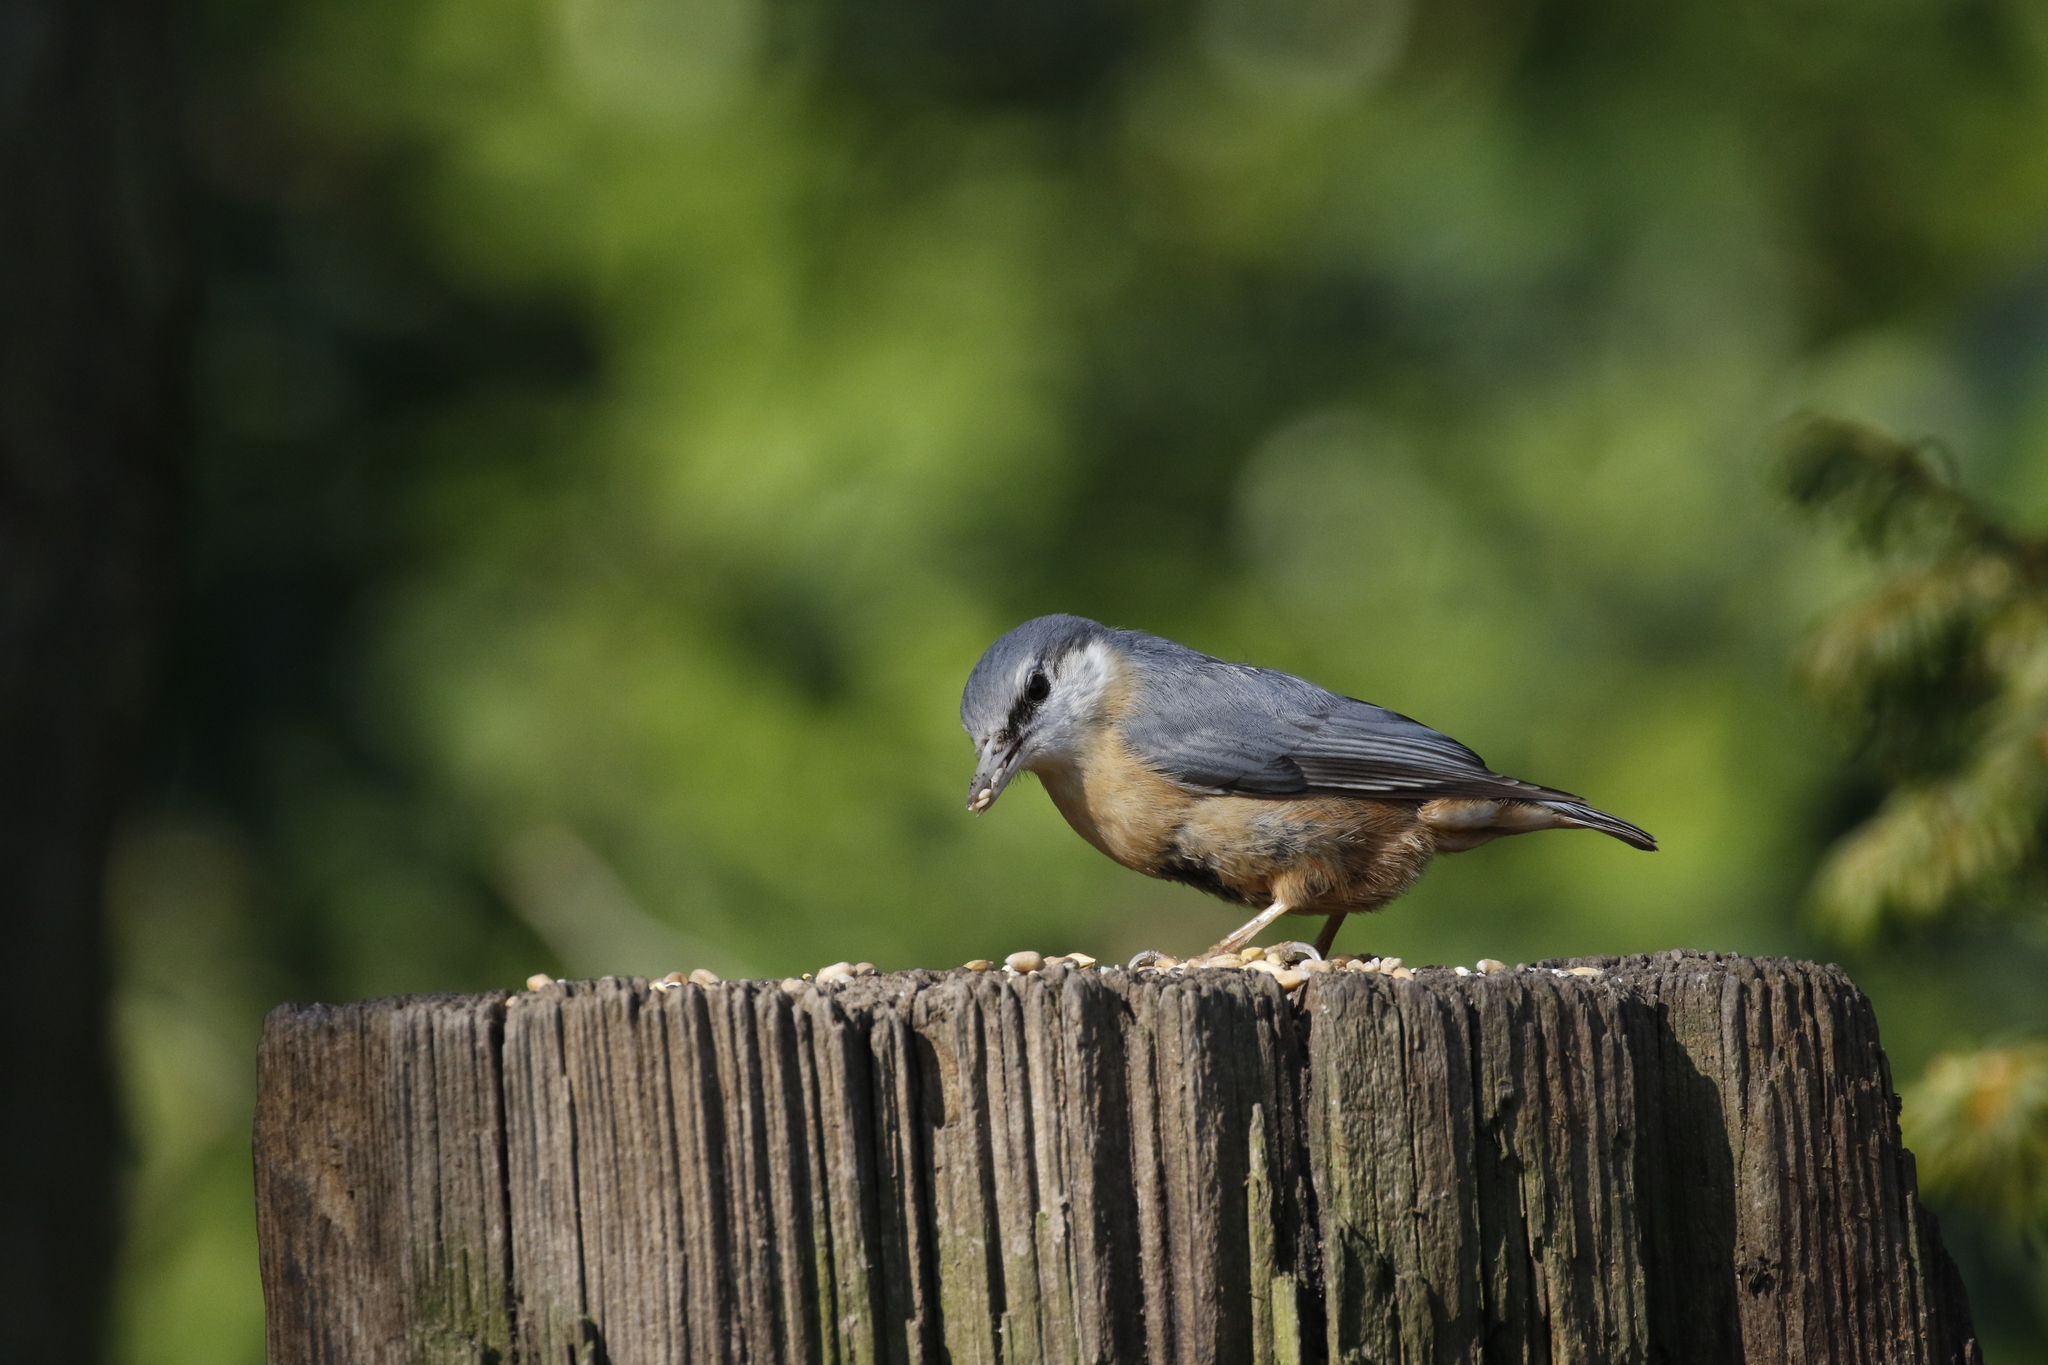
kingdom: Animalia
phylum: Chordata
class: Aves
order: Passeriformes
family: Sittidae
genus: Sitta
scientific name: Sitta europaea
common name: Eurasian nuthatch
